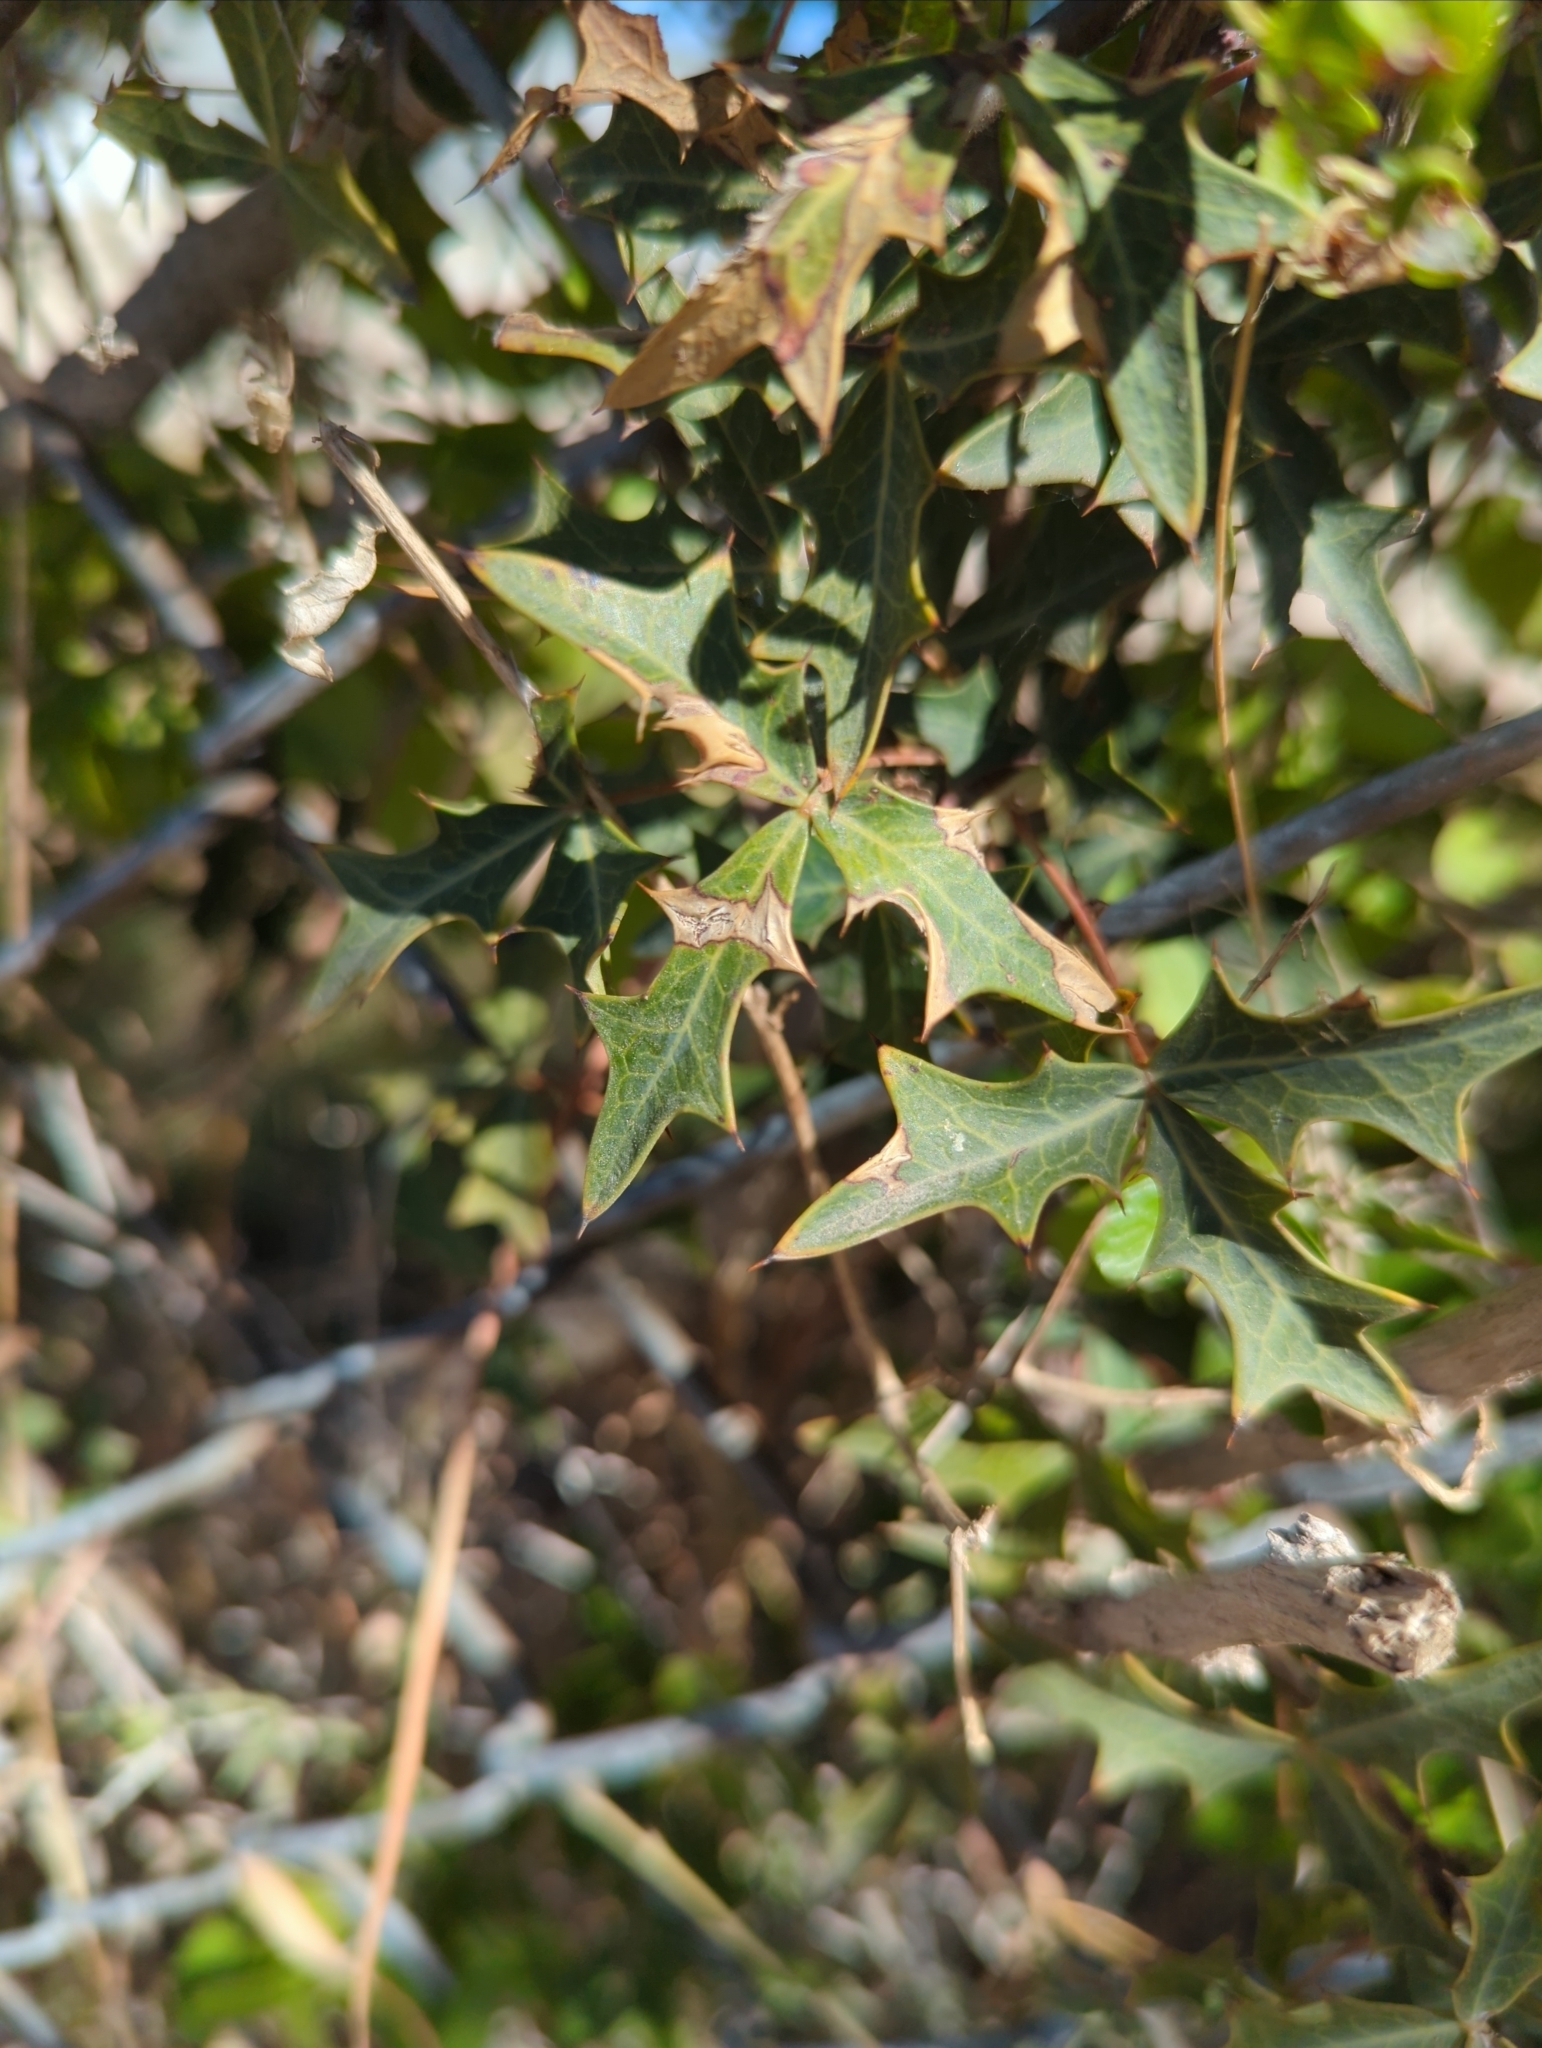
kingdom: Plantae
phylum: Tracheophyta
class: Magnoliopsida
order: Ranunculales
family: Berberidaceae
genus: Alloberberis
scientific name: Alloberberis trifoliolata
